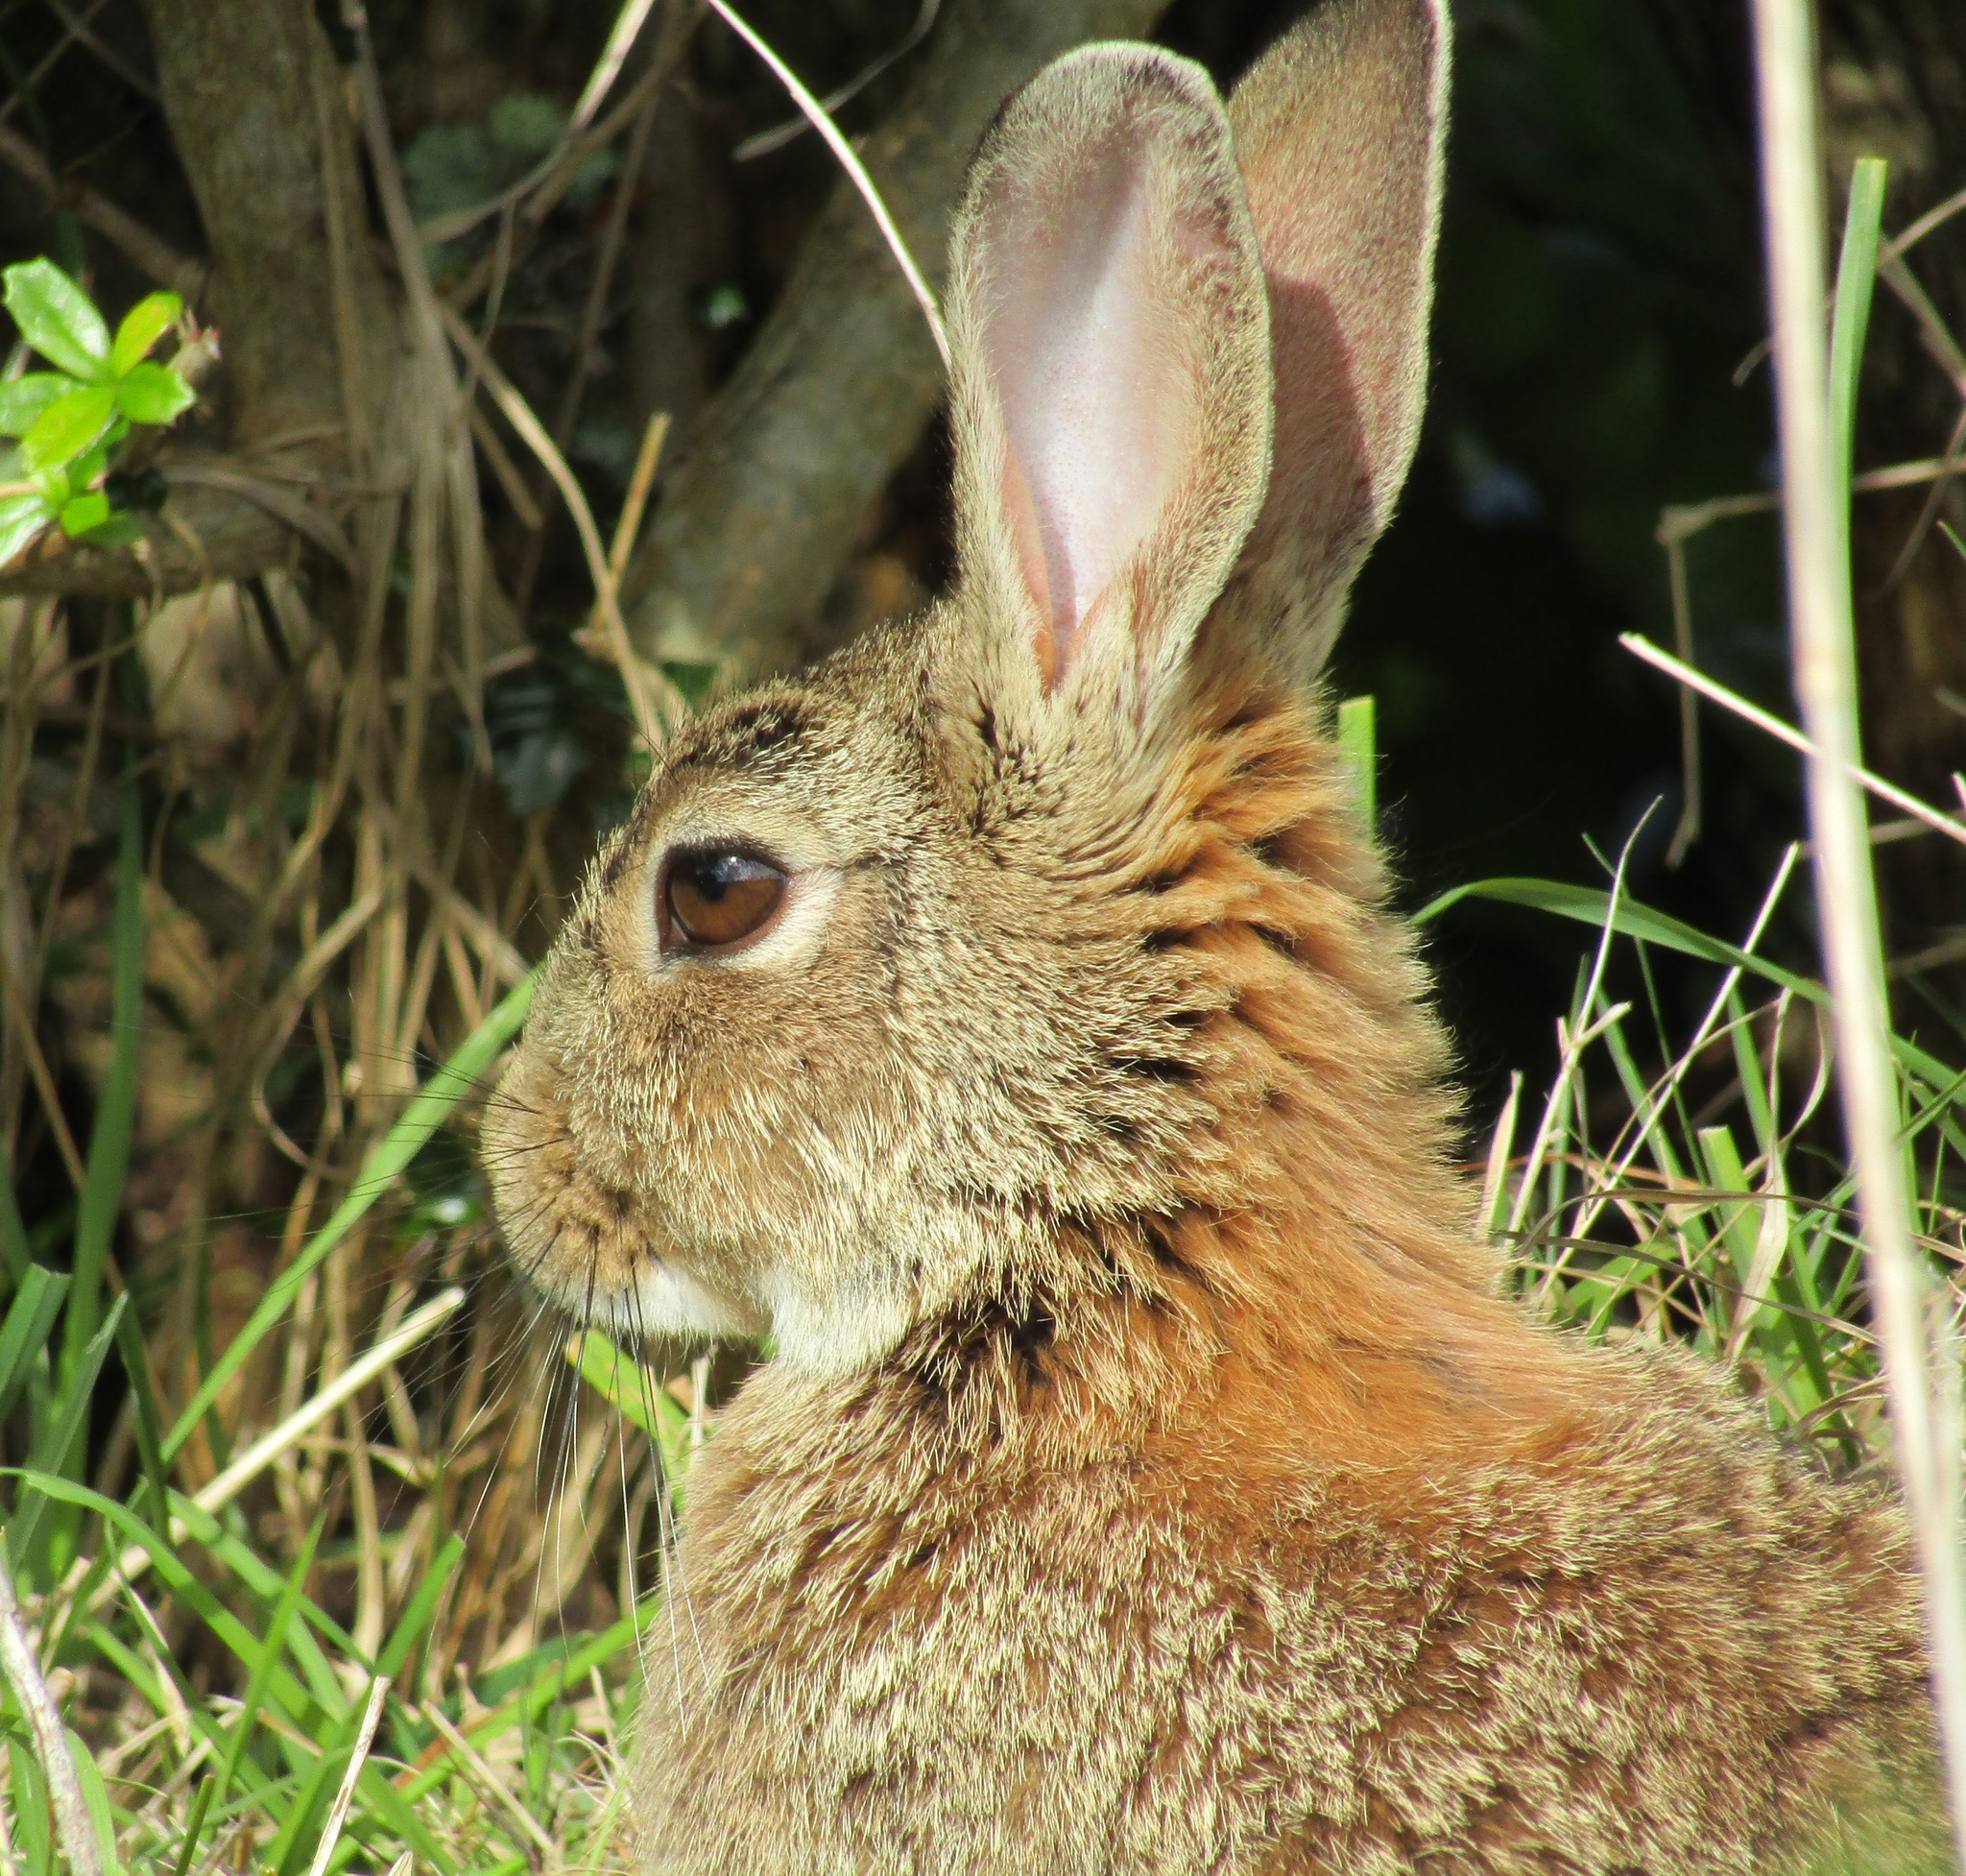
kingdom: Animalia
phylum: Chordata
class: Mammalia
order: Lagomorpha
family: Leporidae
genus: Oryctolagus
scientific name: Oryctolagus cuniculus
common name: European rabbit
